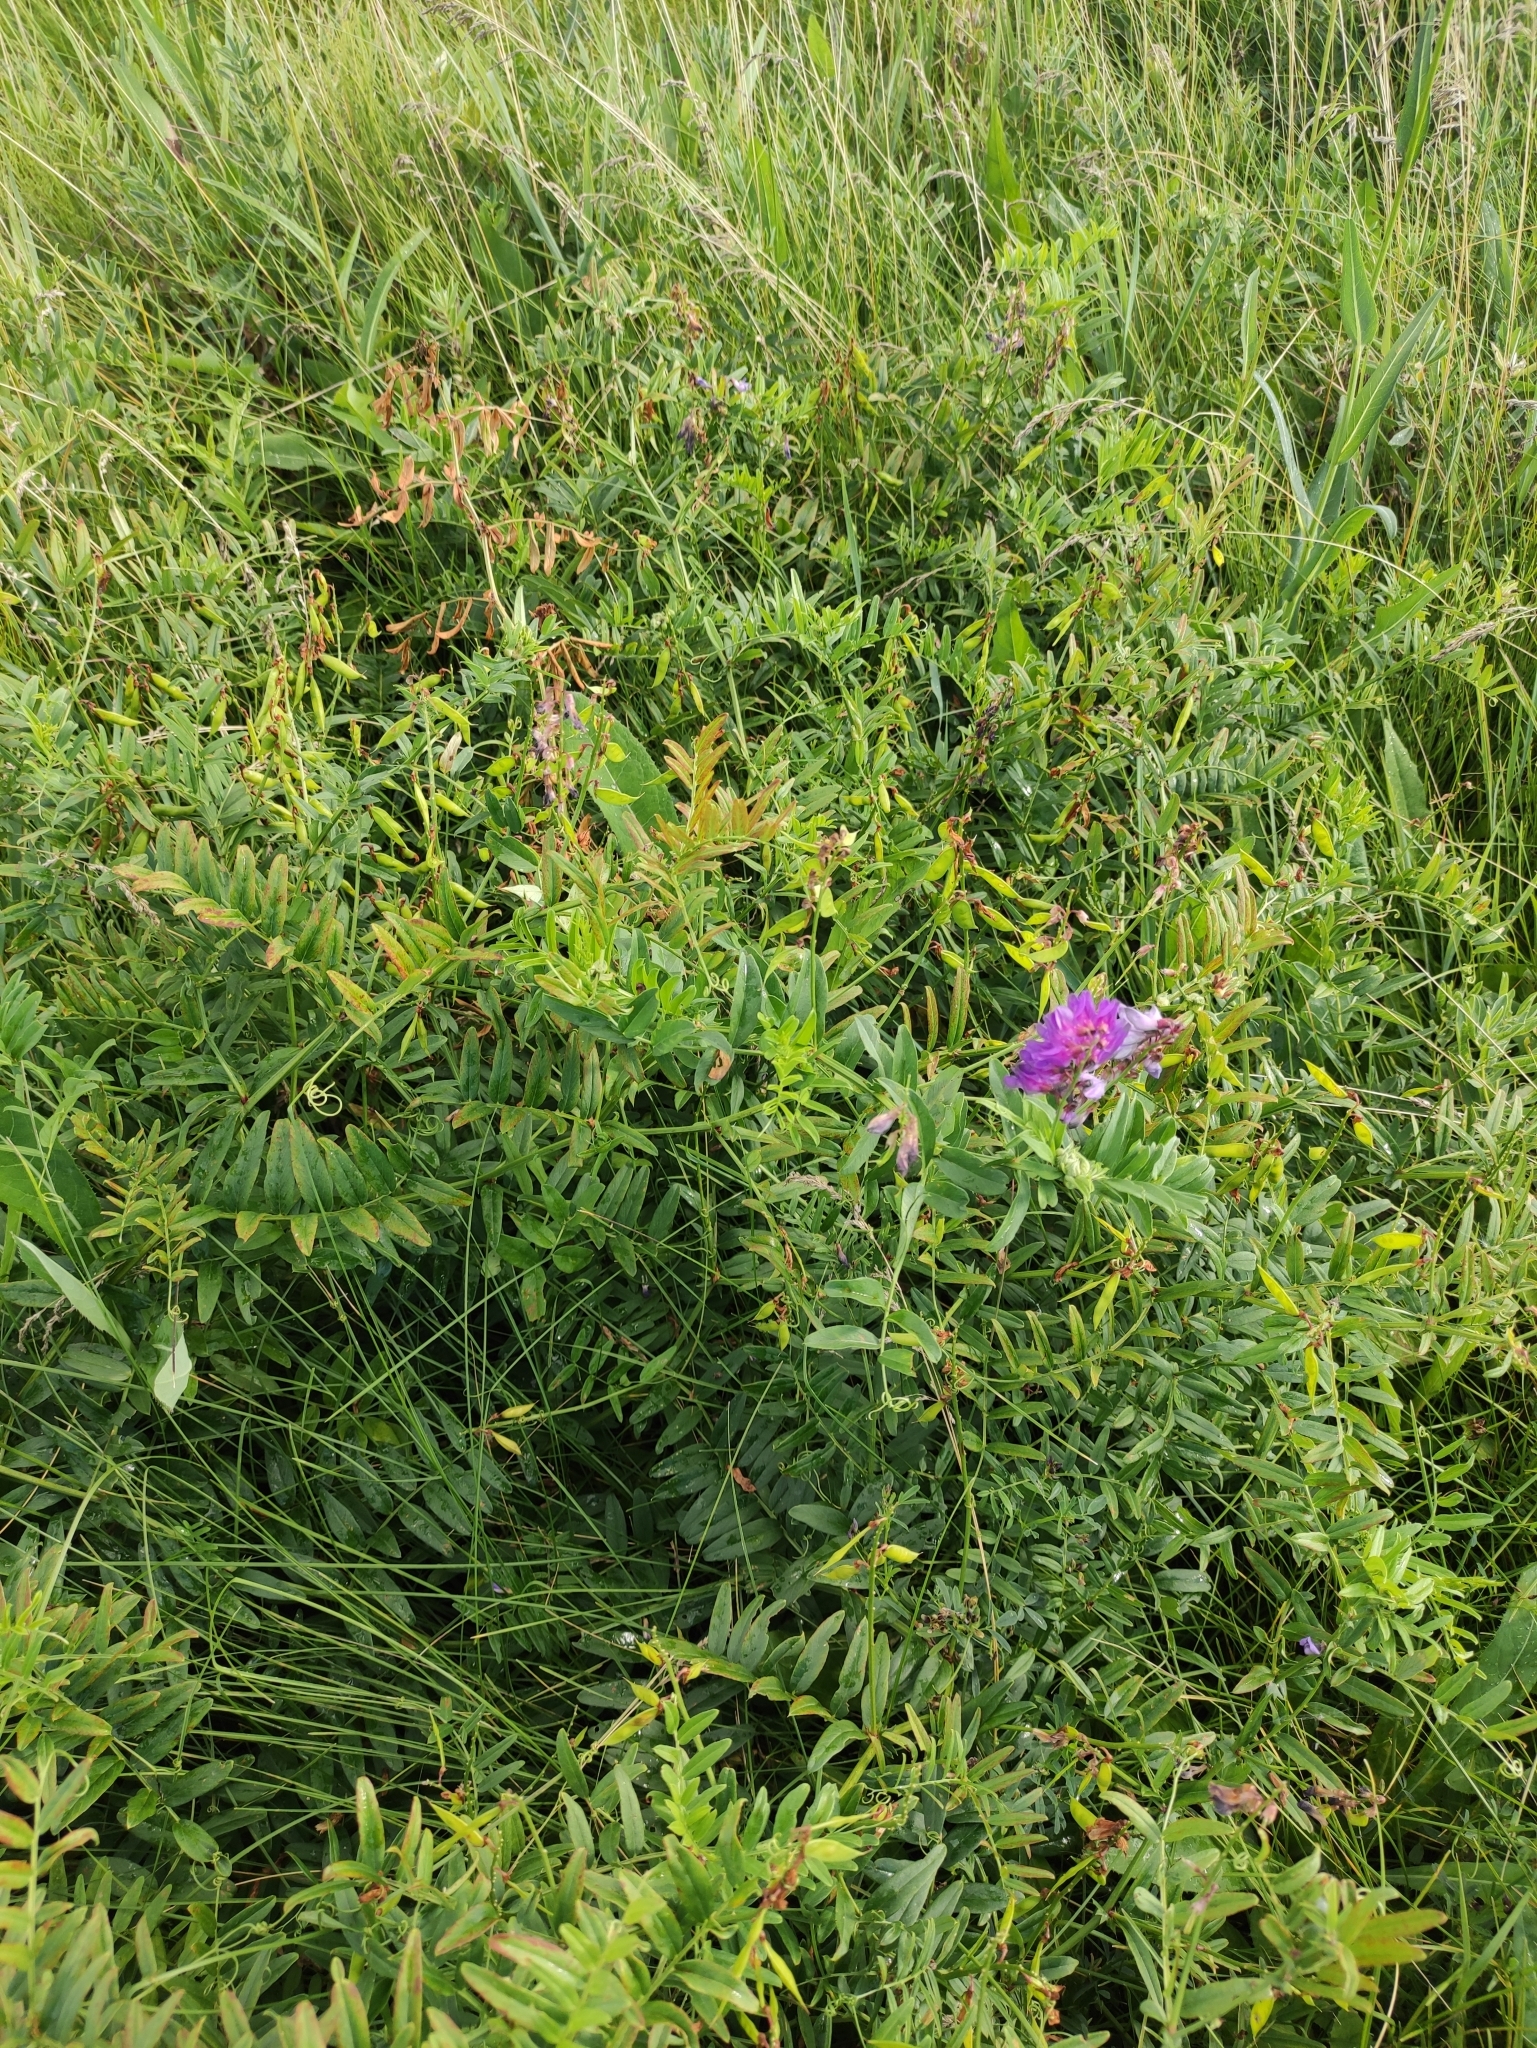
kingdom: Plantae
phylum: Tracheophyta
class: Magnoliopsida
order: Fabales
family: Fabaceae
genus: Vicia
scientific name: Vicia amoena
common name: Cheder ebs
